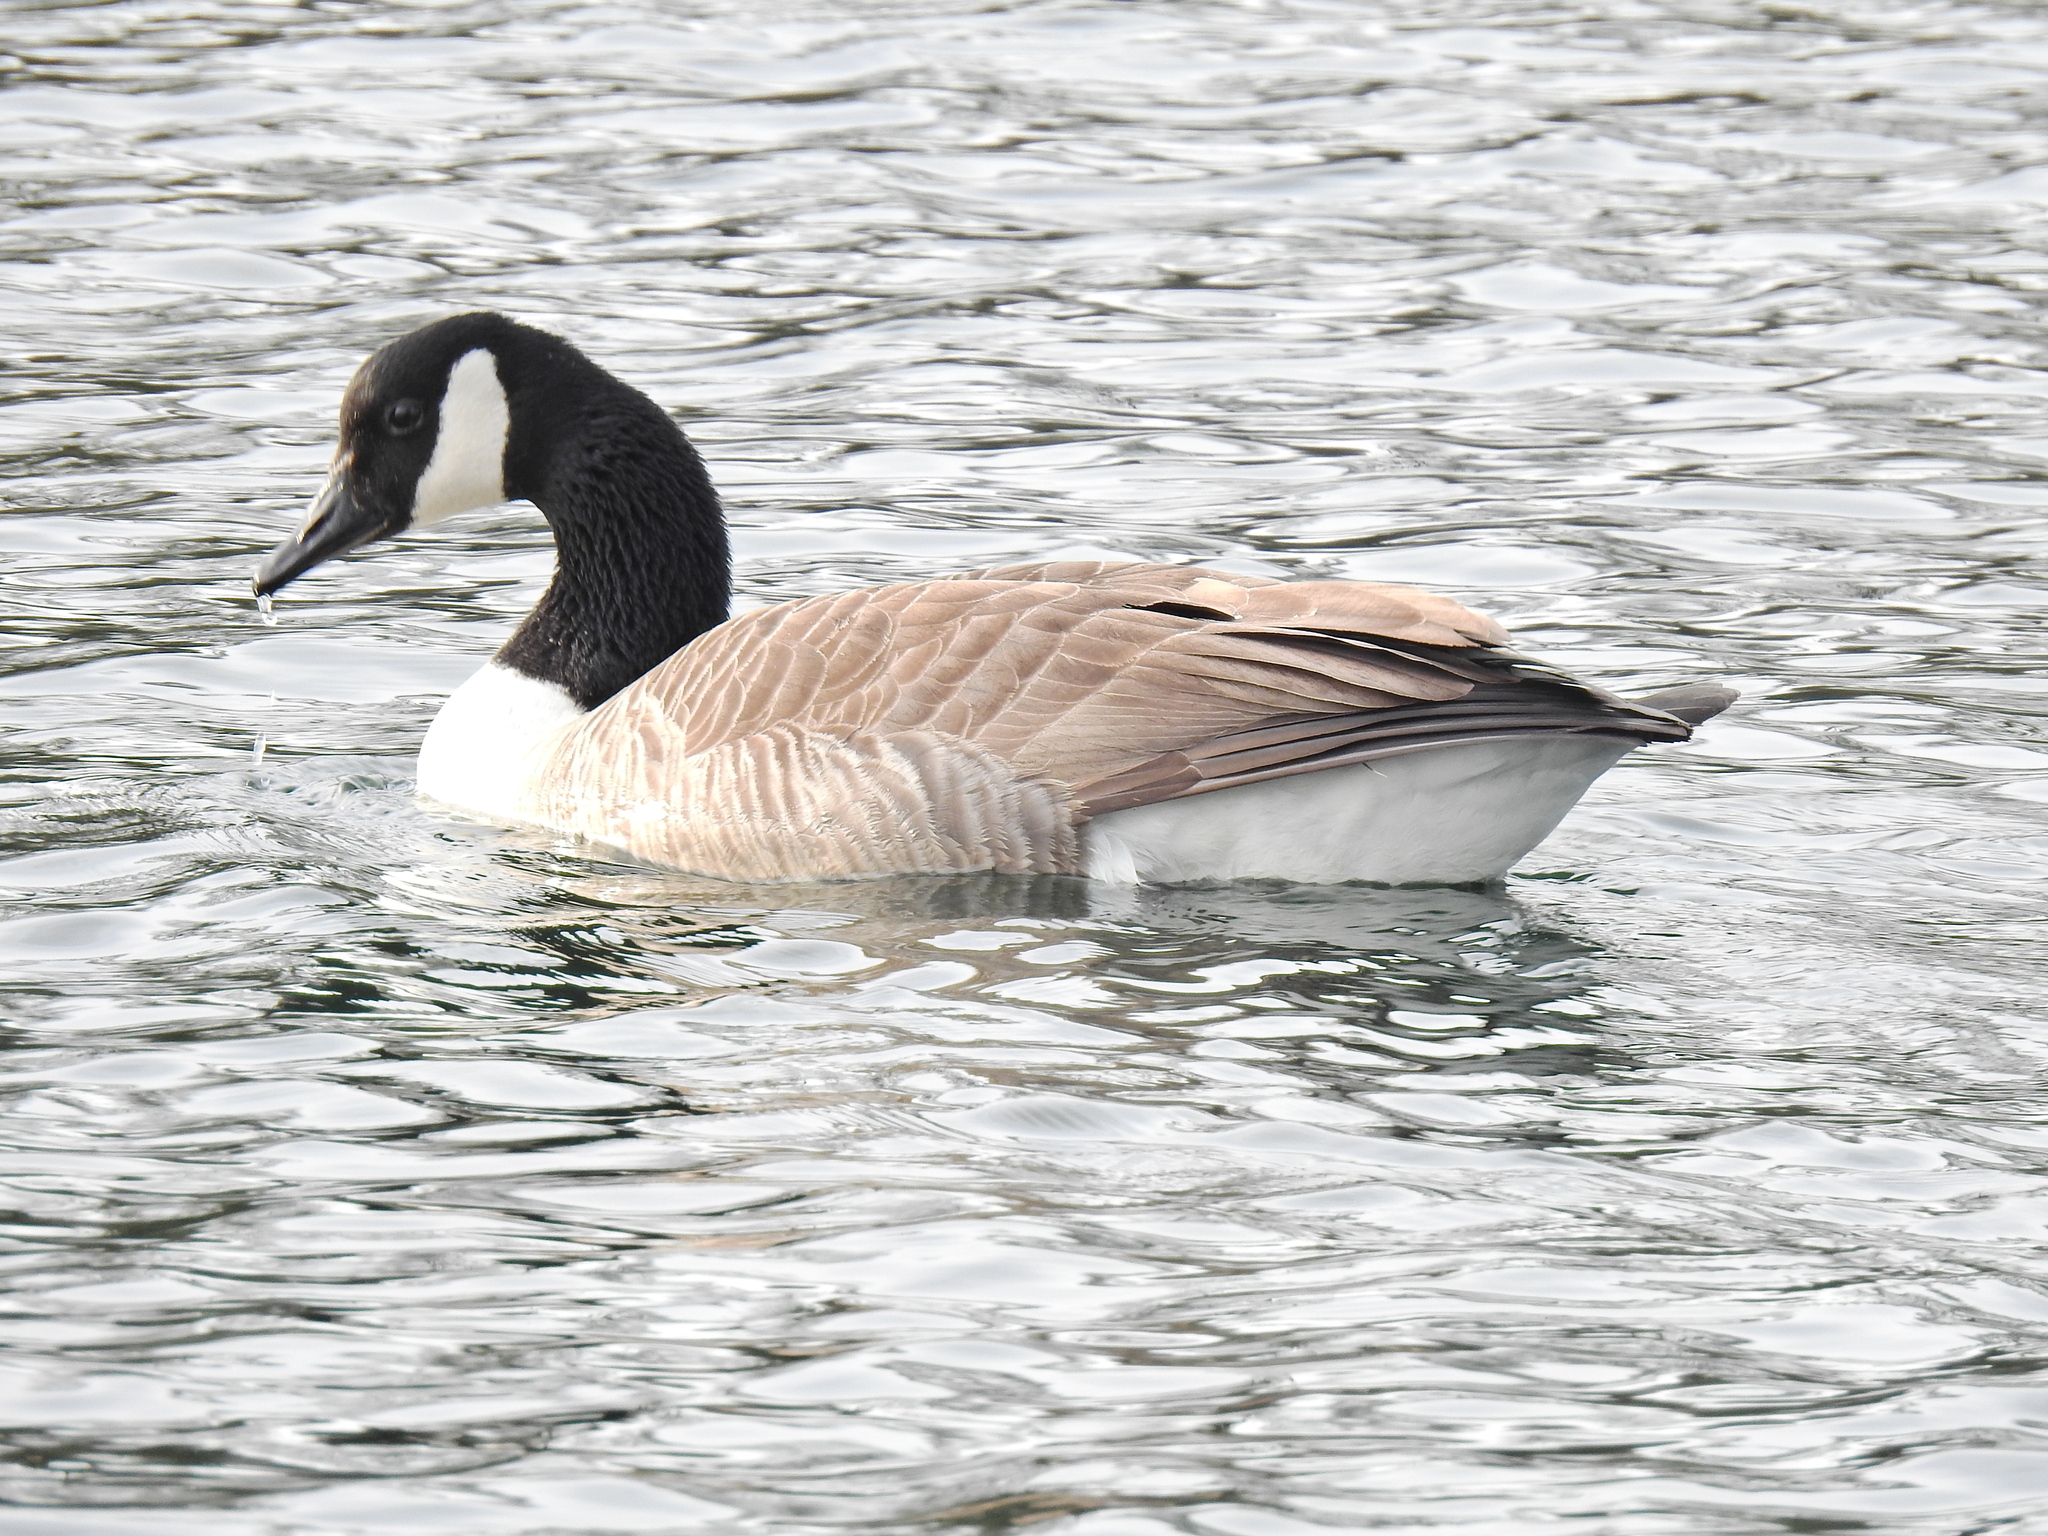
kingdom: Animalia
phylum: Chordata
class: Aves
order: Anseriformes
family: Anatidae
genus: Branta
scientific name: Branta canadensis
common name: Canada goose
